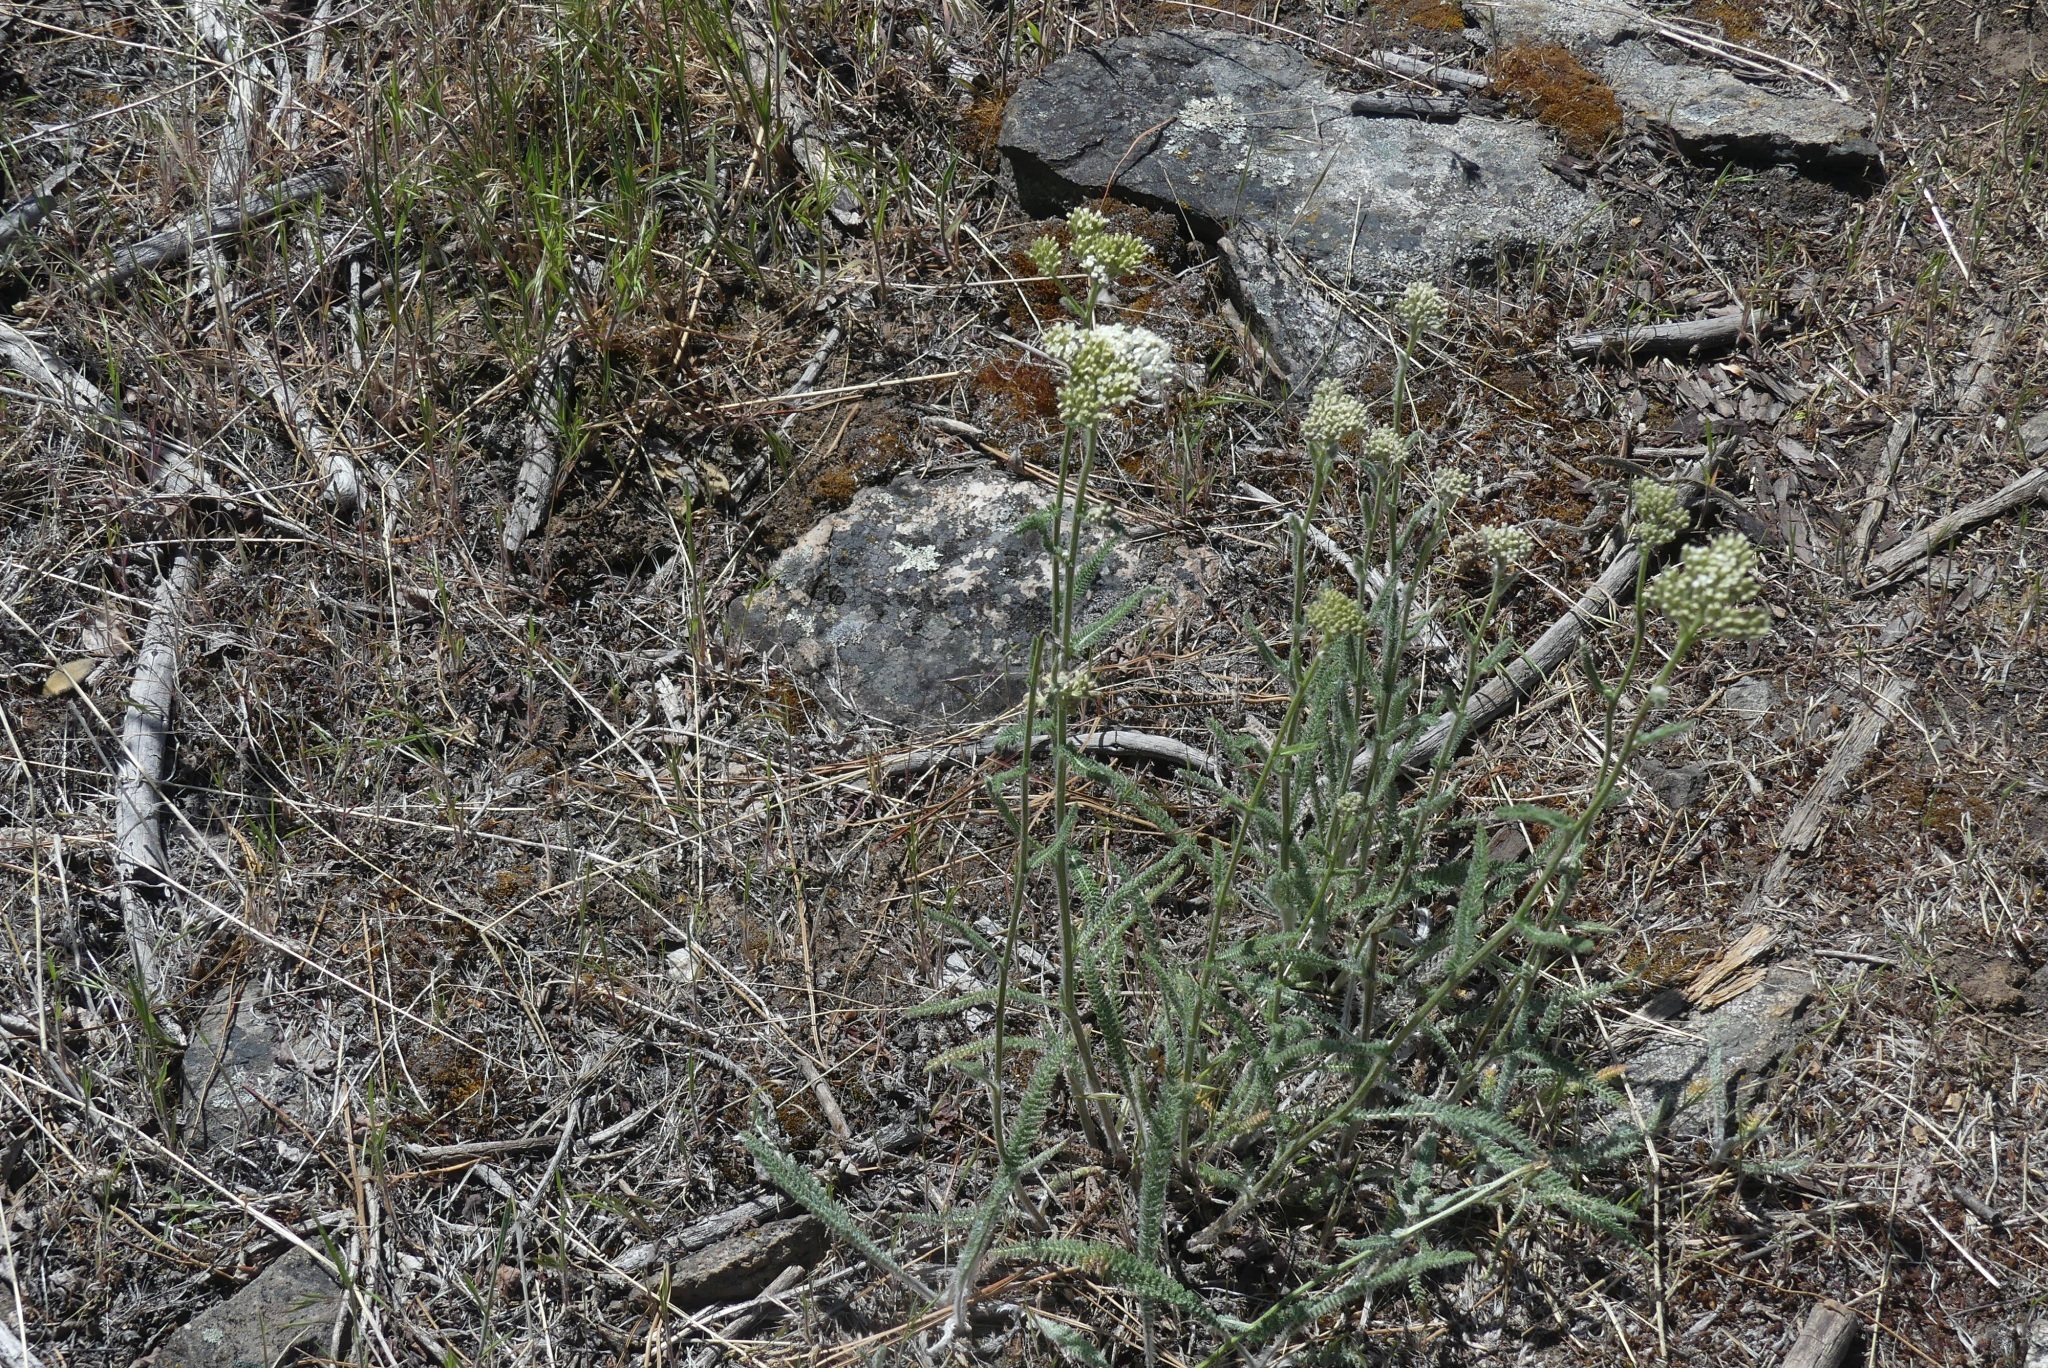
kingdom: Plantae
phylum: Tracheophyta
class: Magnoliopsida
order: Asterales
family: Asteraceae
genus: Achillea
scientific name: Achillea millefolium
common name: Yarrow
